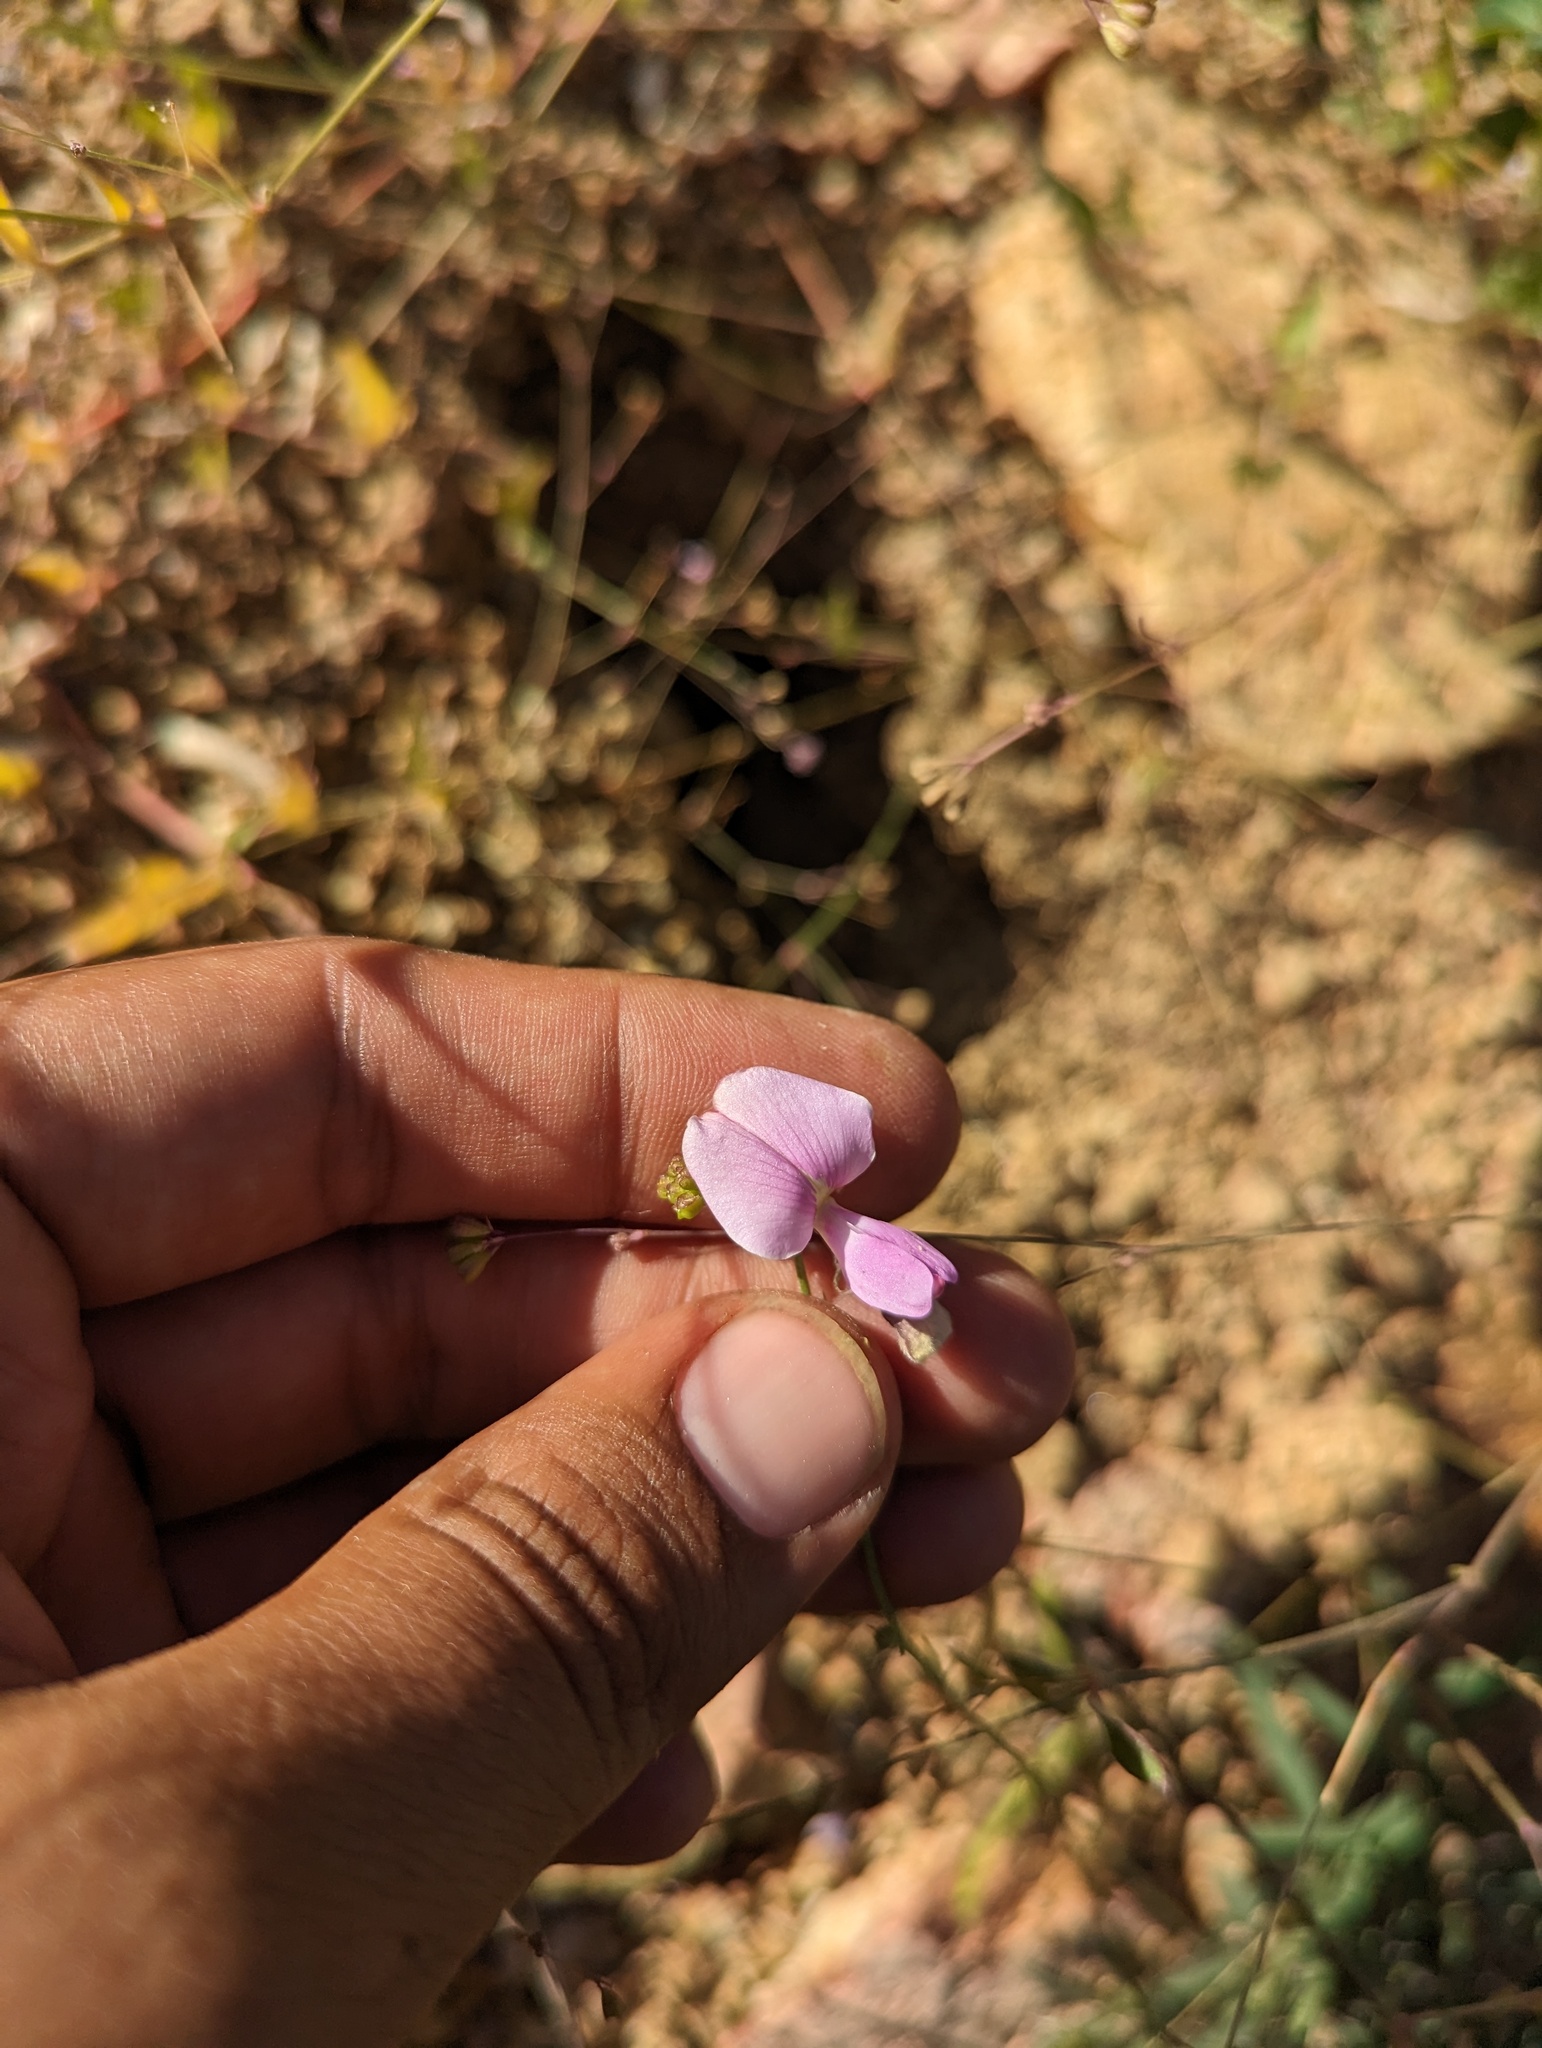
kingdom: Plantae
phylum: Tracheophyta
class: Magnoliopsida
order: Fabales
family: Fabaceae
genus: Tephrosia
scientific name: Tephrosia palmeri
